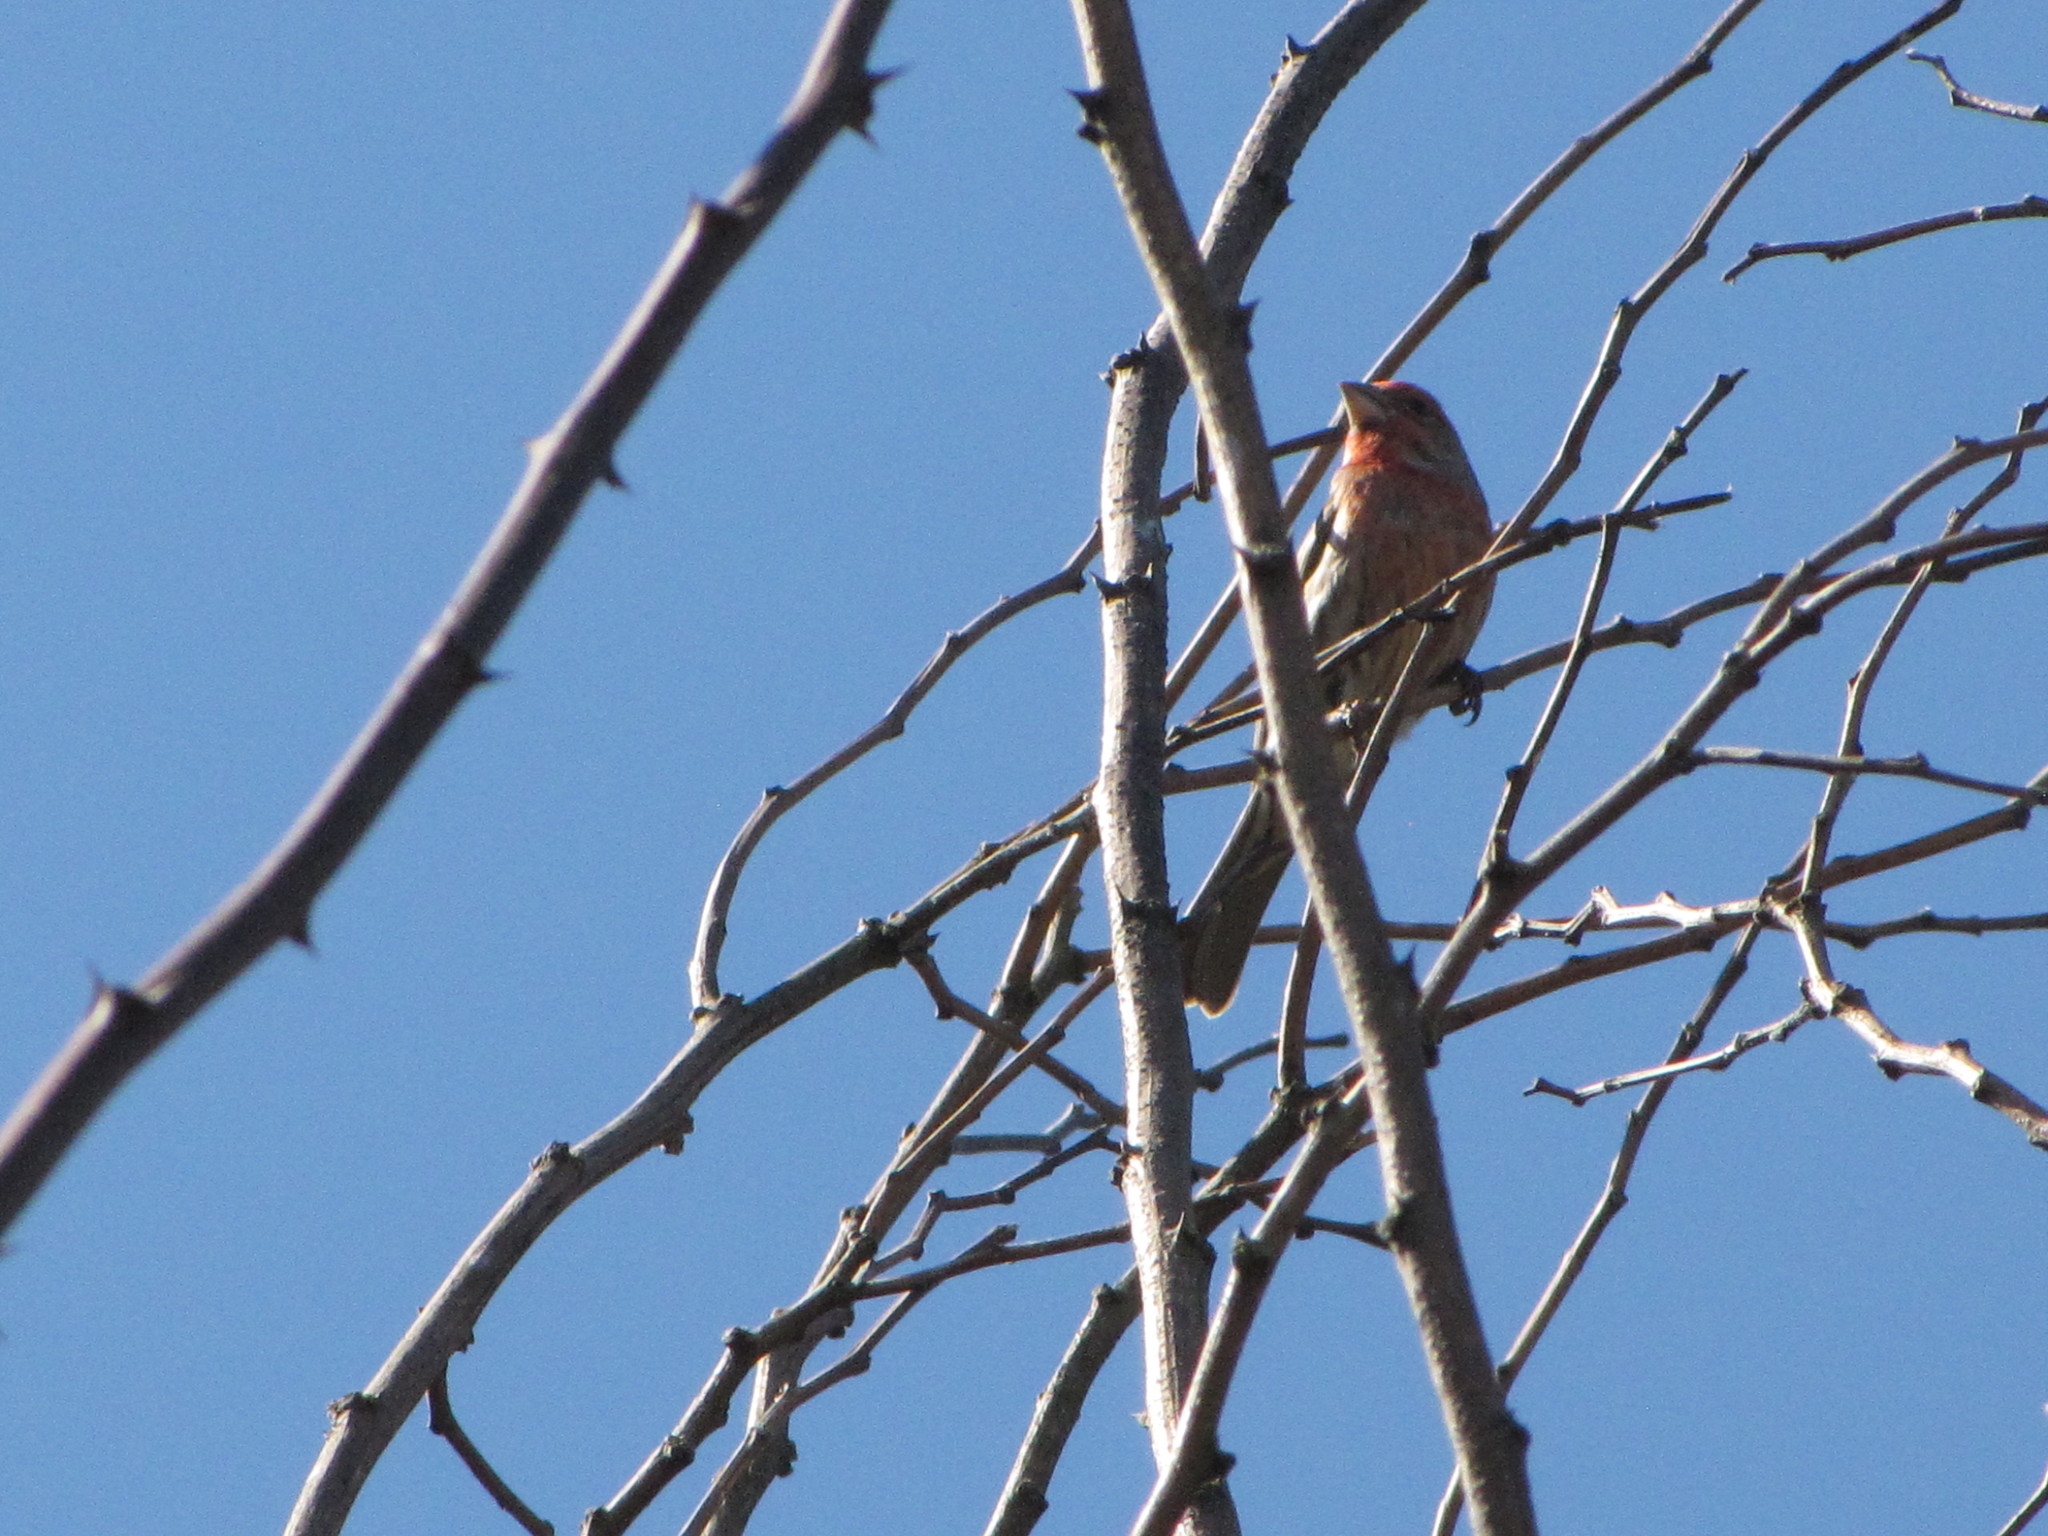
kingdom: Animalia
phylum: Chordata
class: Aves
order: Passeriformes
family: Fringillidae
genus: Haemorhous
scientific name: Haemorhous mexicanus
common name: House finch
